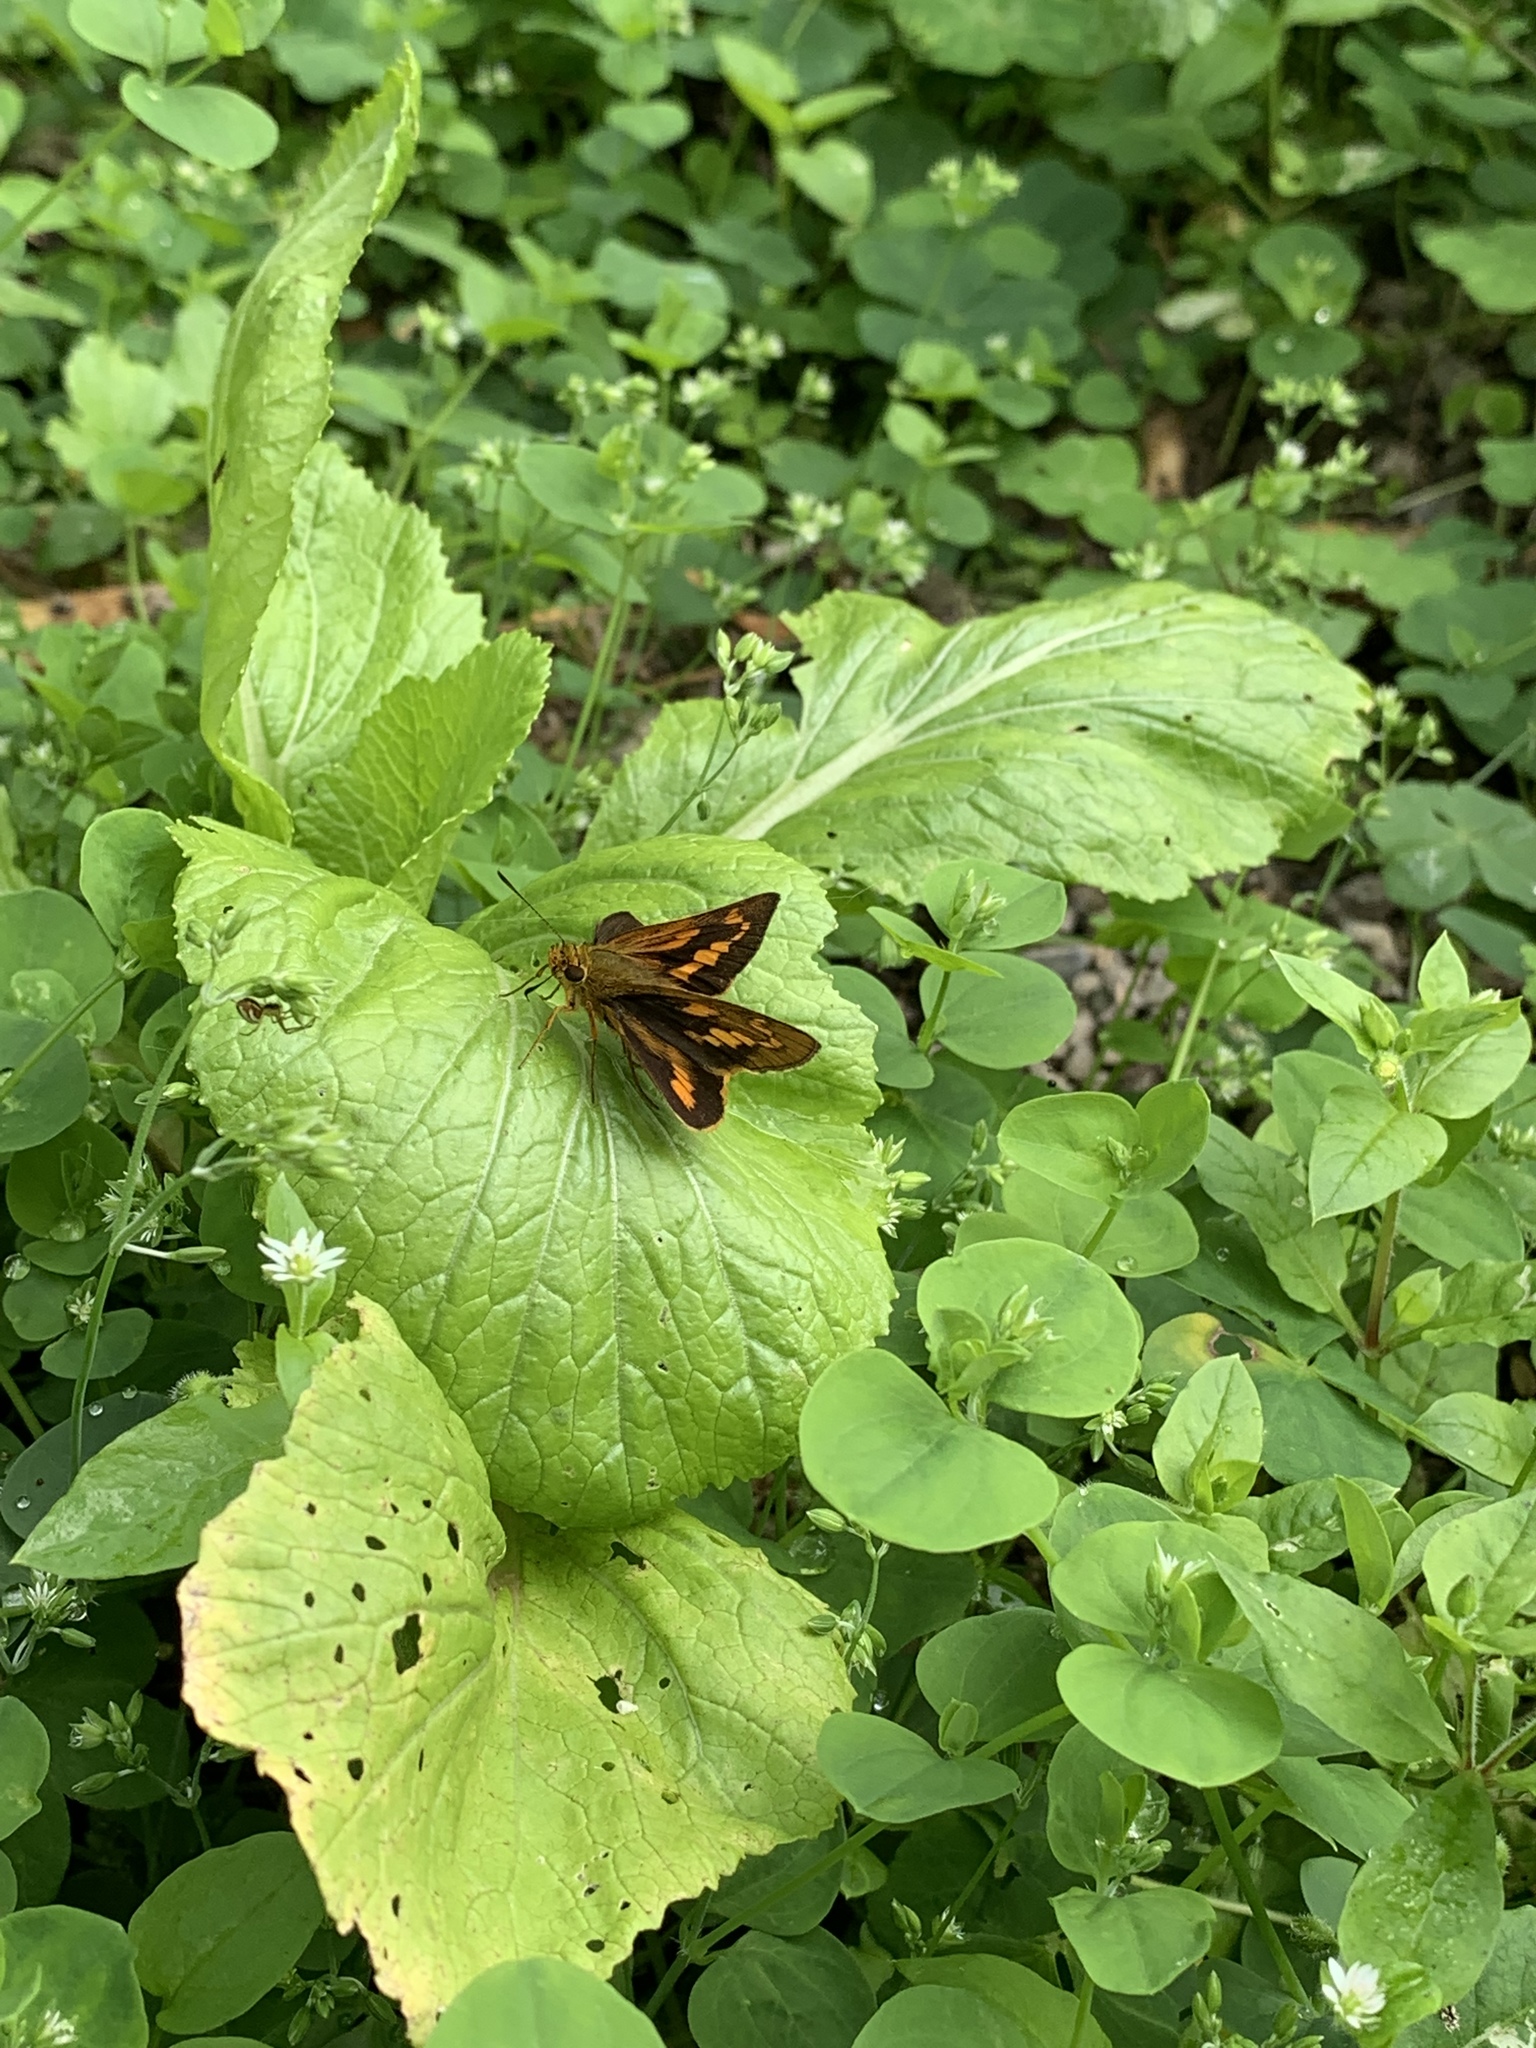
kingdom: Animalia
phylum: Arthropoda
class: Insecta
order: Lepidoptera
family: Hesperiidae
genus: Telicota
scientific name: Telicota ohara
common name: Dark palm dart
